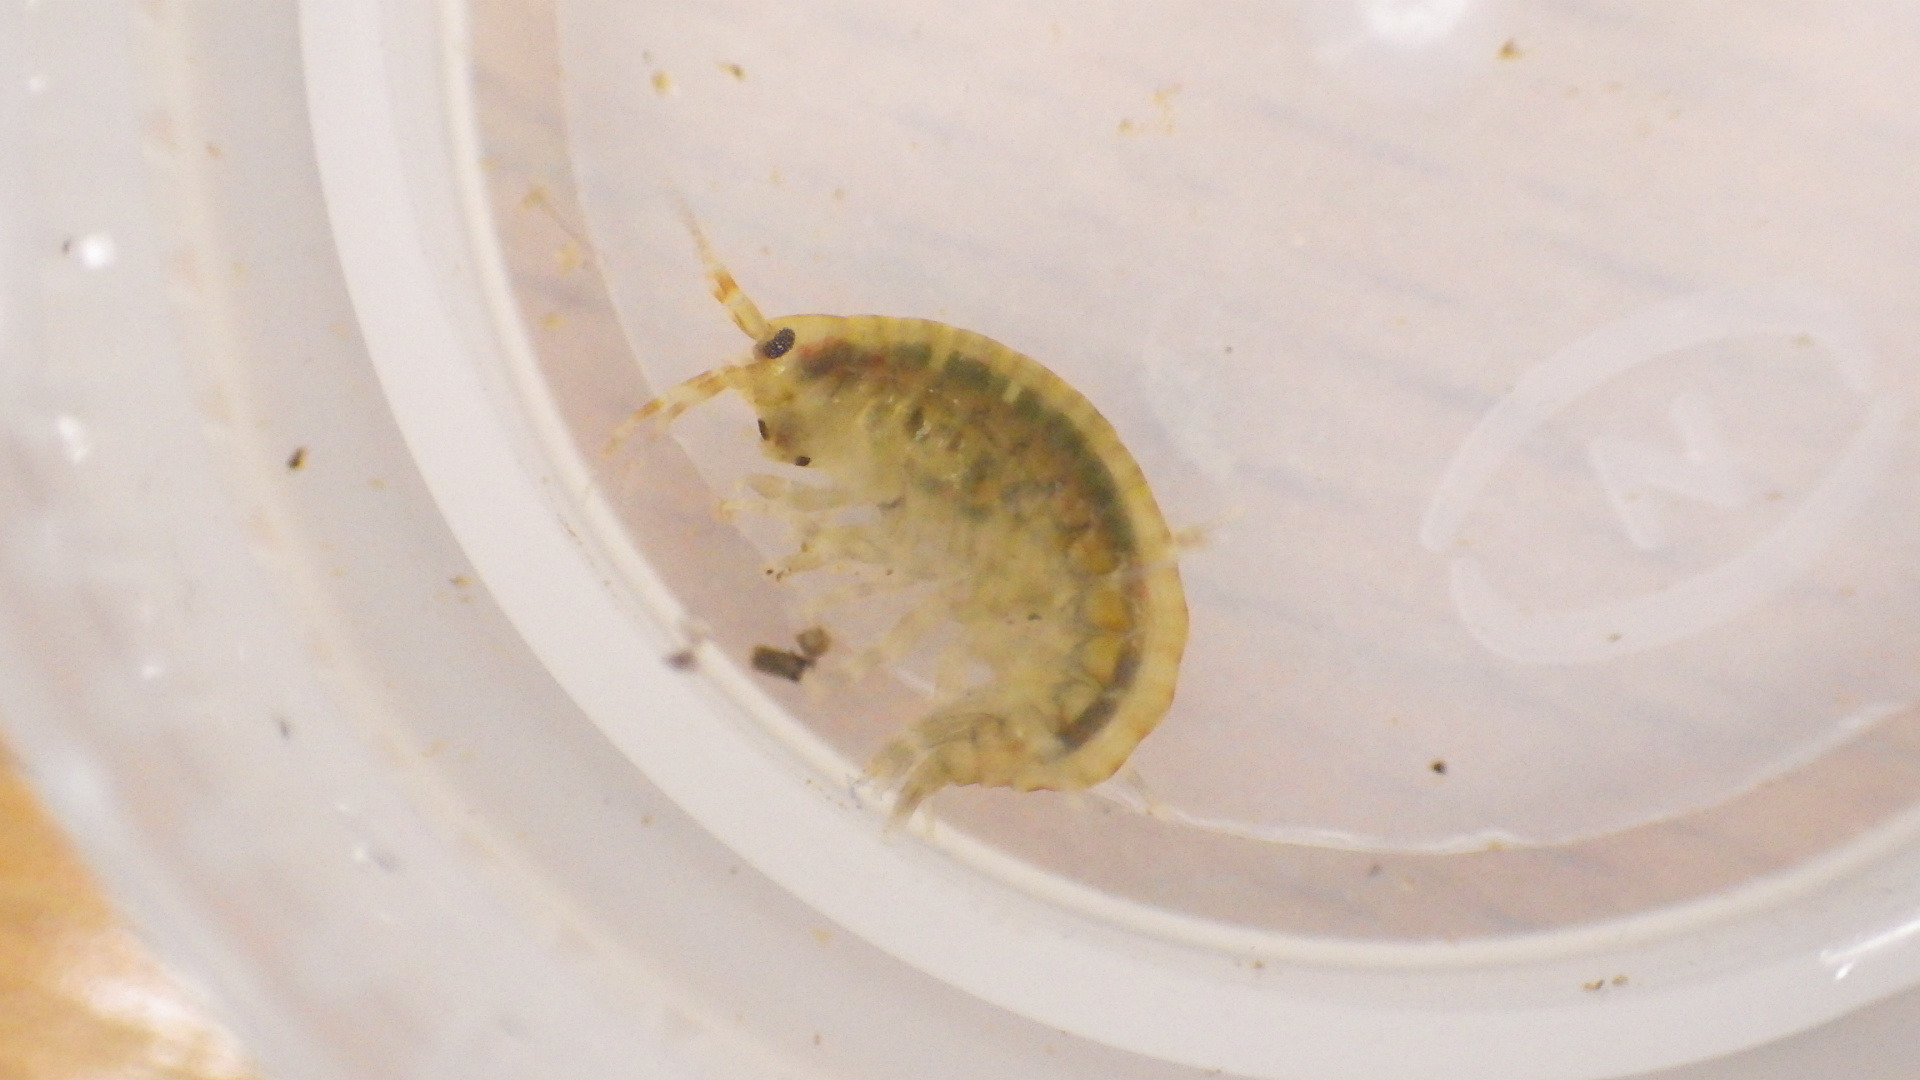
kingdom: Animalia
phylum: Arthropoda
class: Malacostraca
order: Amphipoda
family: Gammaridae
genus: Gammarus
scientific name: Gammarus fasciatus
